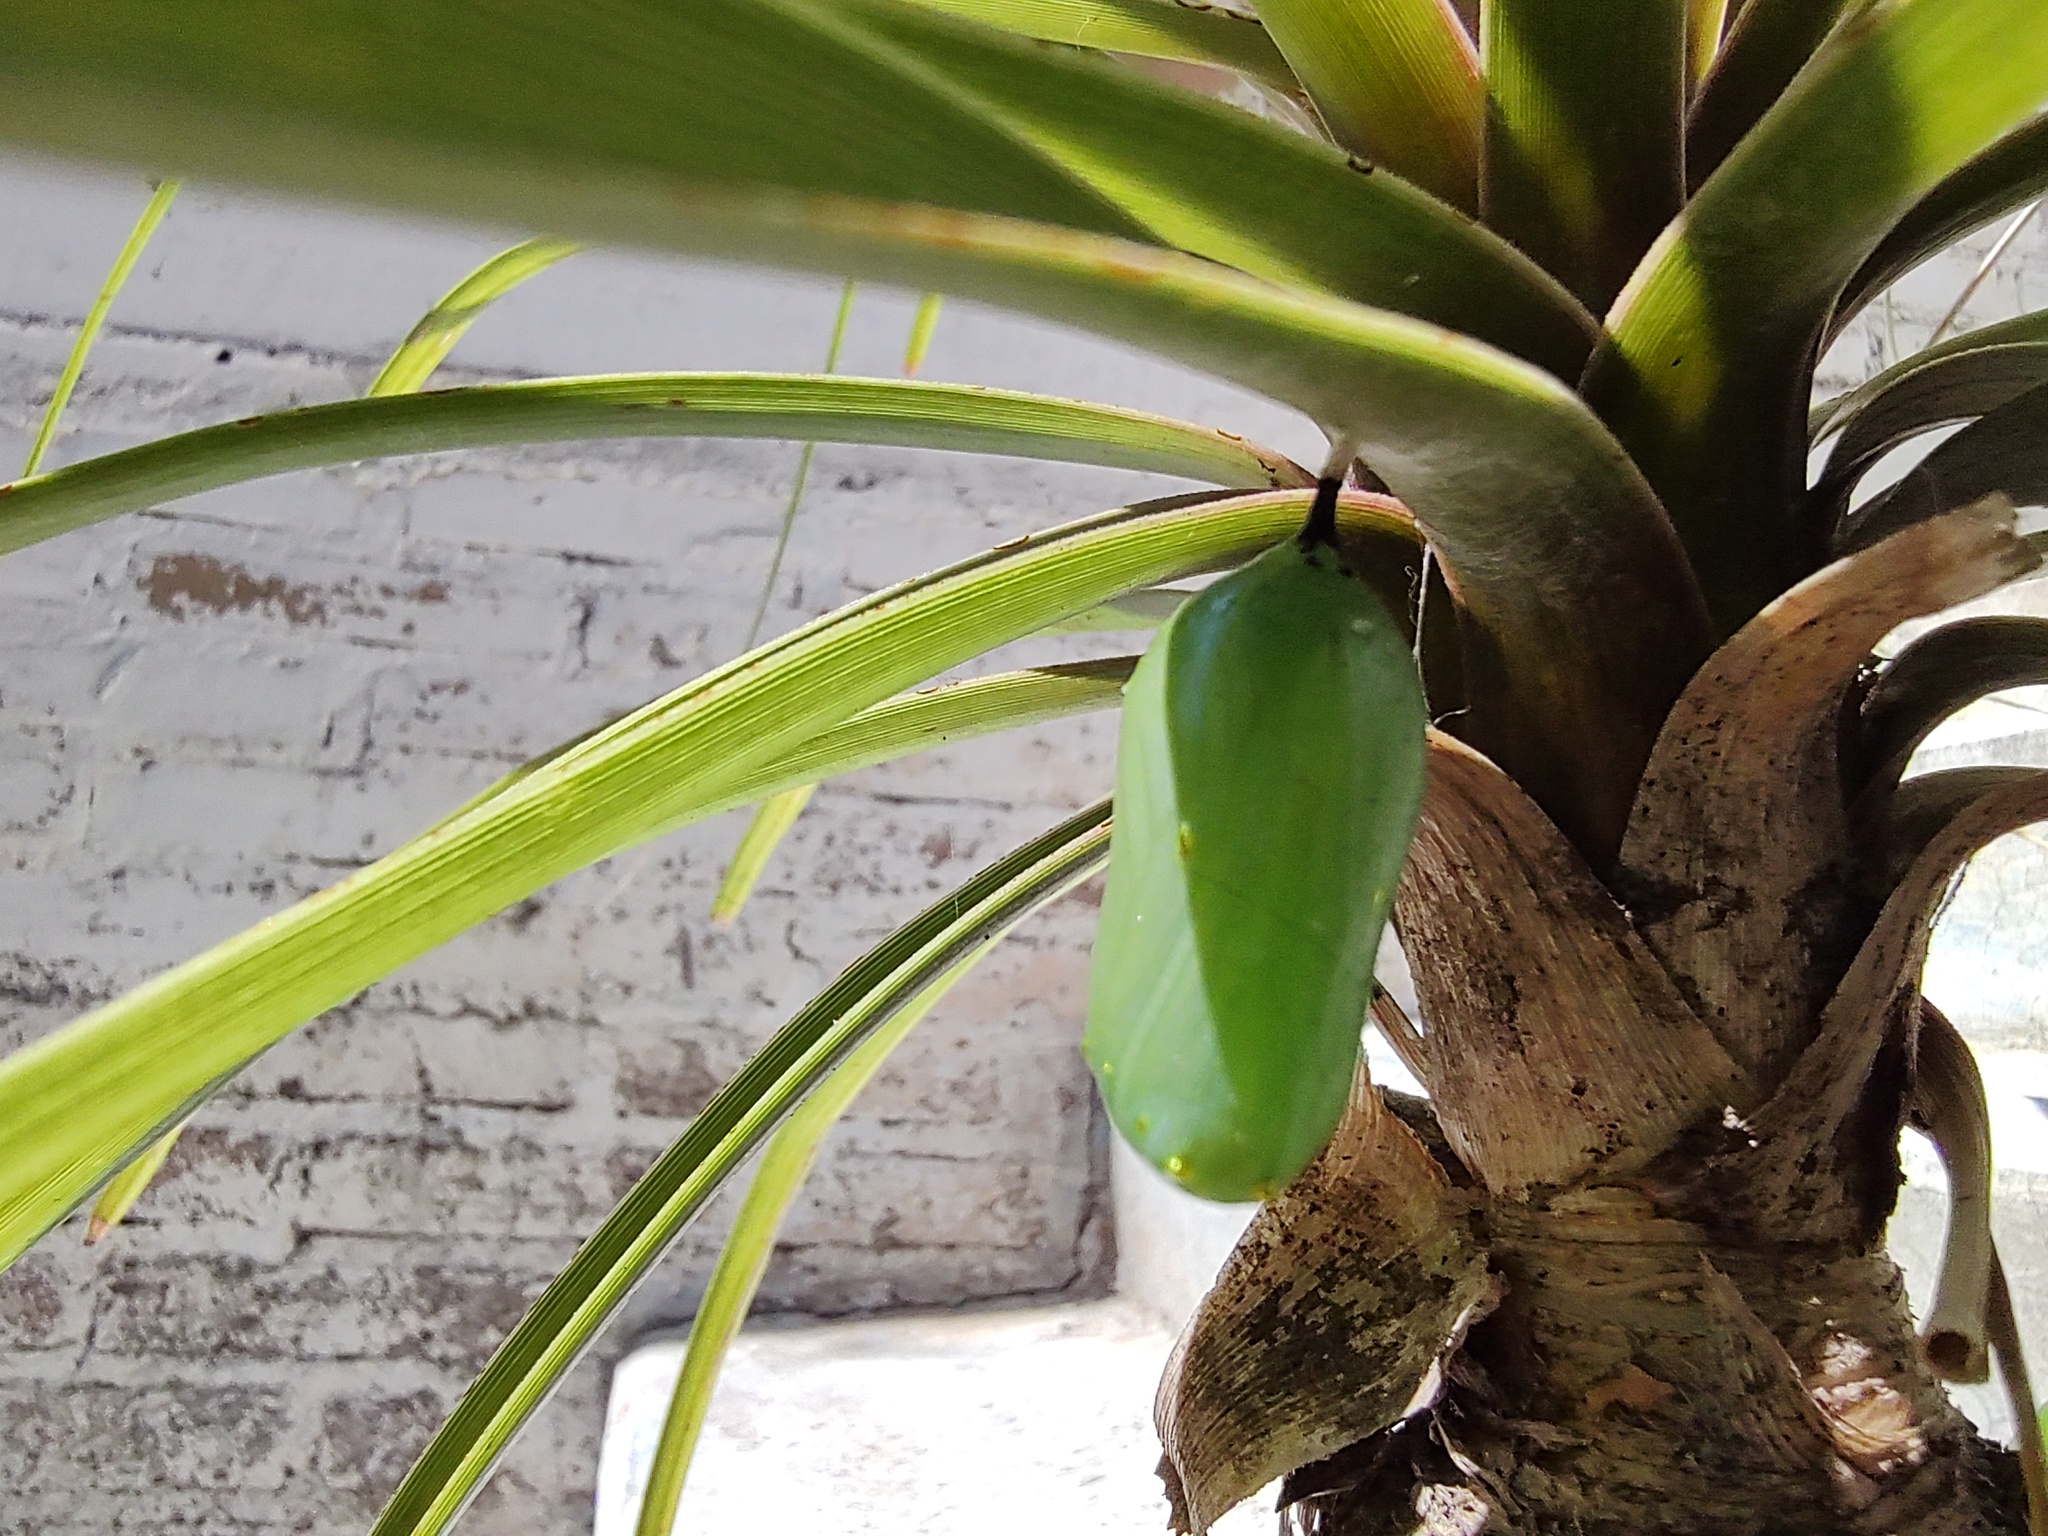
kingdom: Animalia
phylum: Arthropoda
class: Insecta
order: Lepidoptera
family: Nymphalidae
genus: Danaus
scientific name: Danaus plexippus
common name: Monarch
